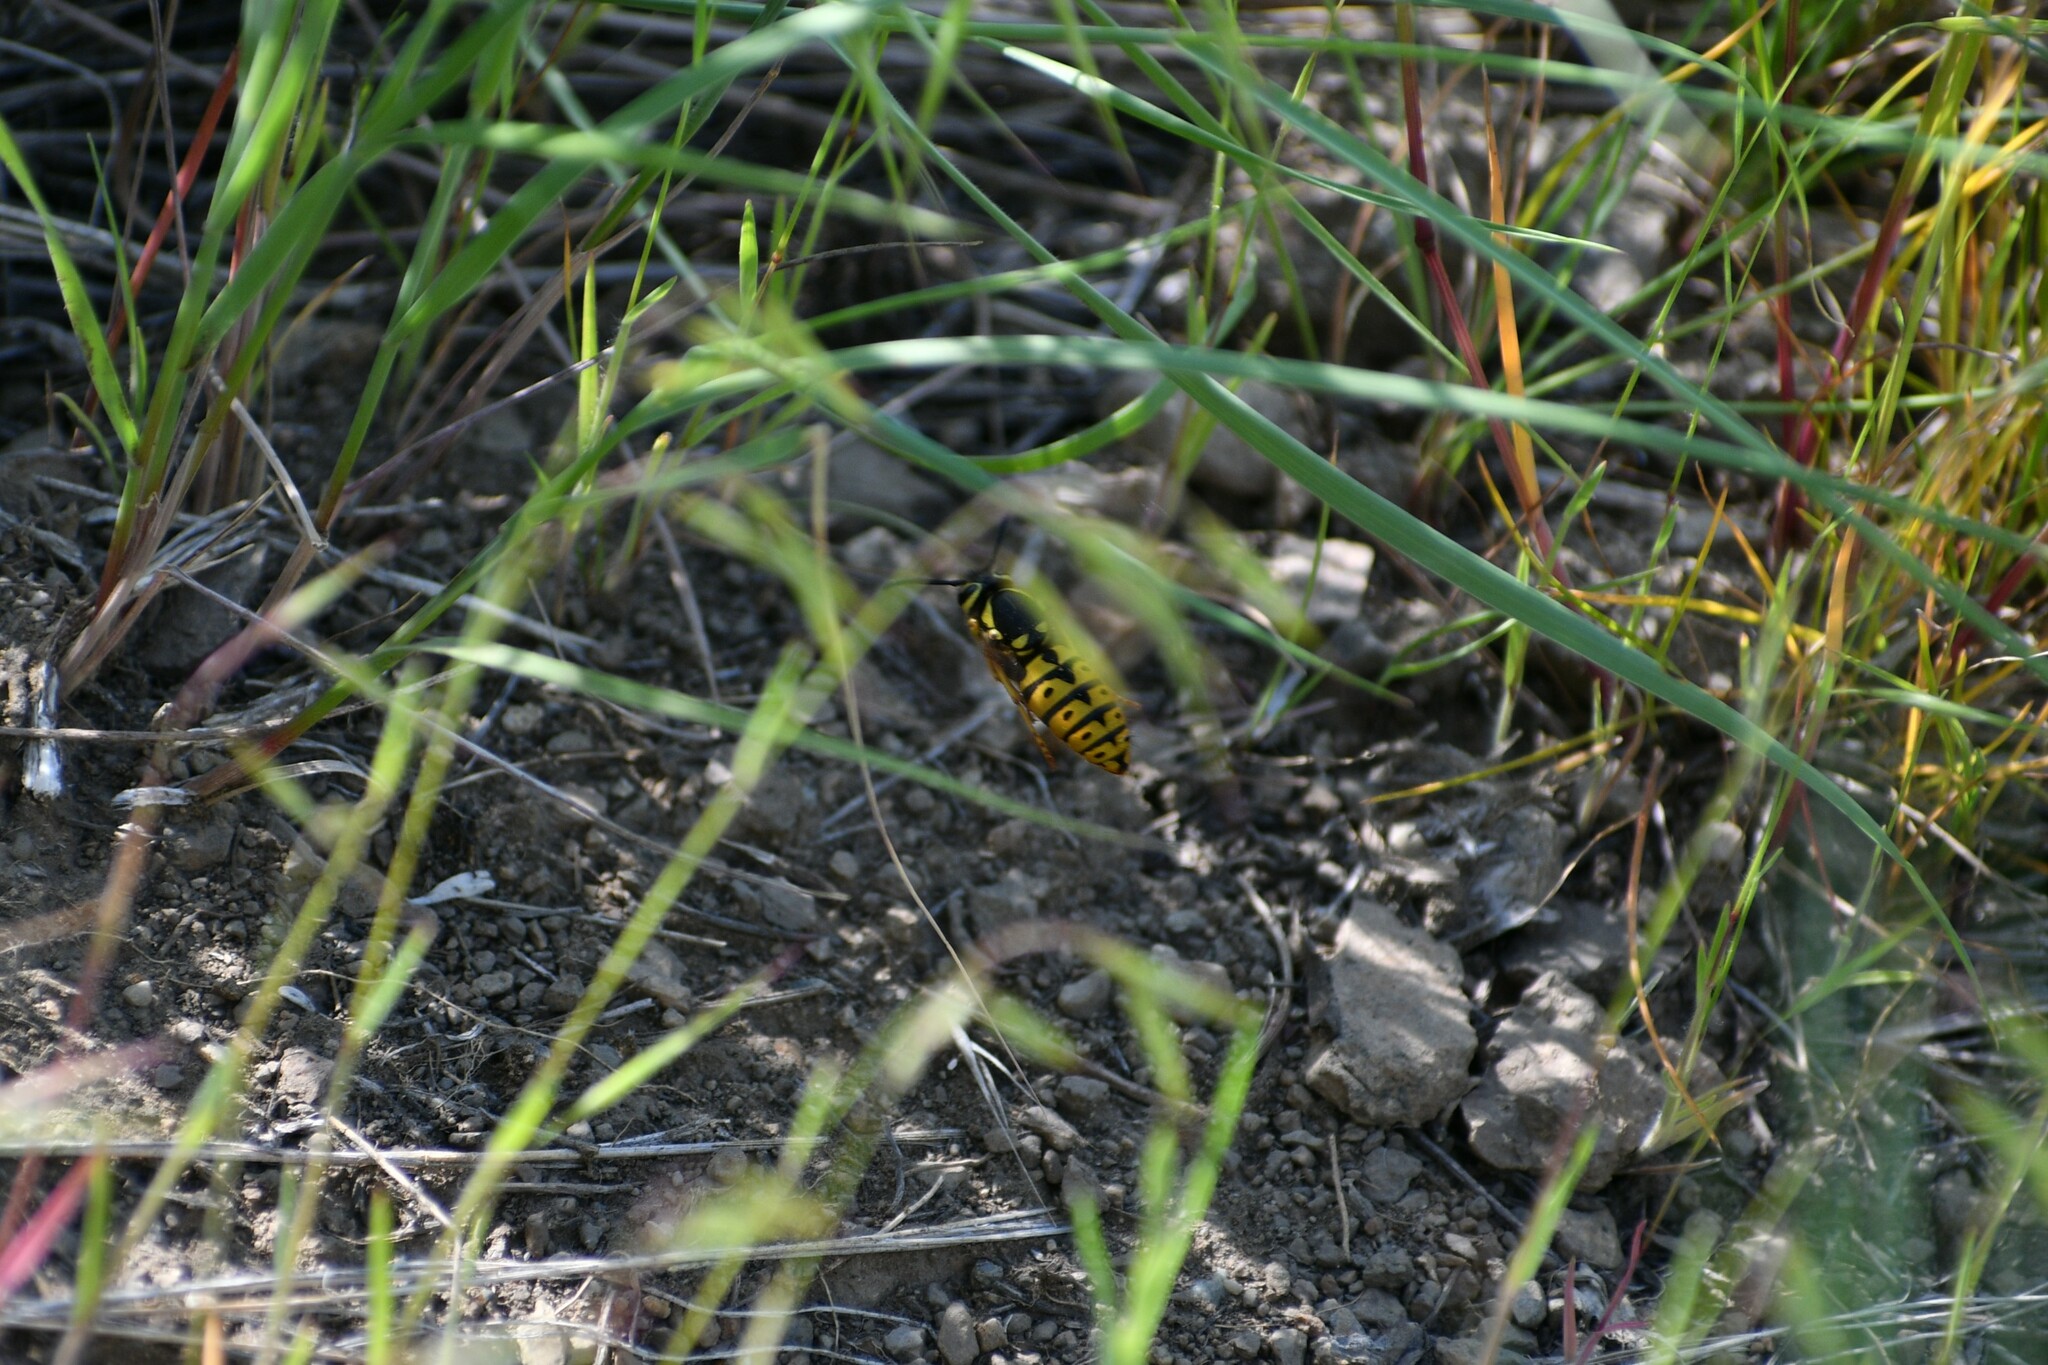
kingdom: Animalia
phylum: Arthropoda
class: Insecta
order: Hymenoptera
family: Vespidae
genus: Vespula
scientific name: Vespula pensylvanica
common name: Western yellowjacket
